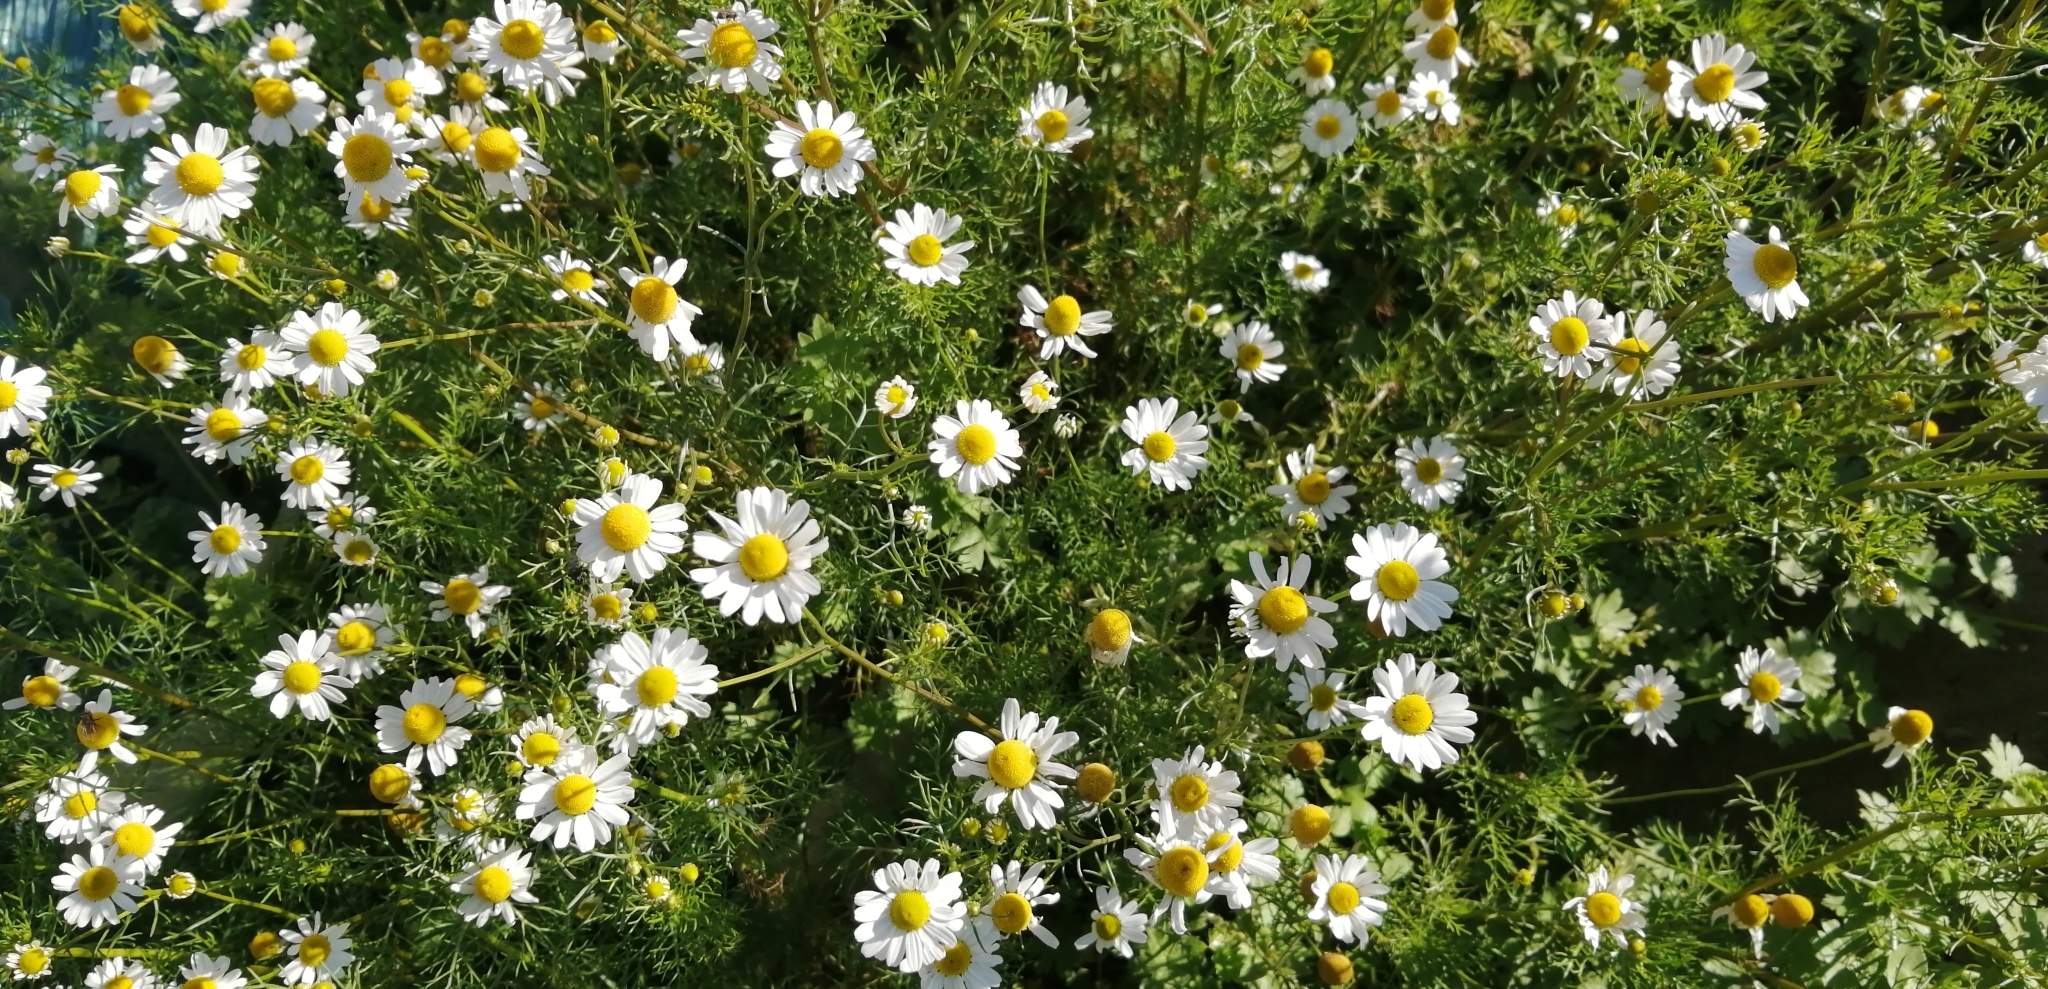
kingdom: Plantae
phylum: Tracheophyta
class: Magnoliopsida
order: Asterales
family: Asteraceae
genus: Matricaria
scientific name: Matricaria chamomilla
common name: Scented mayweed
